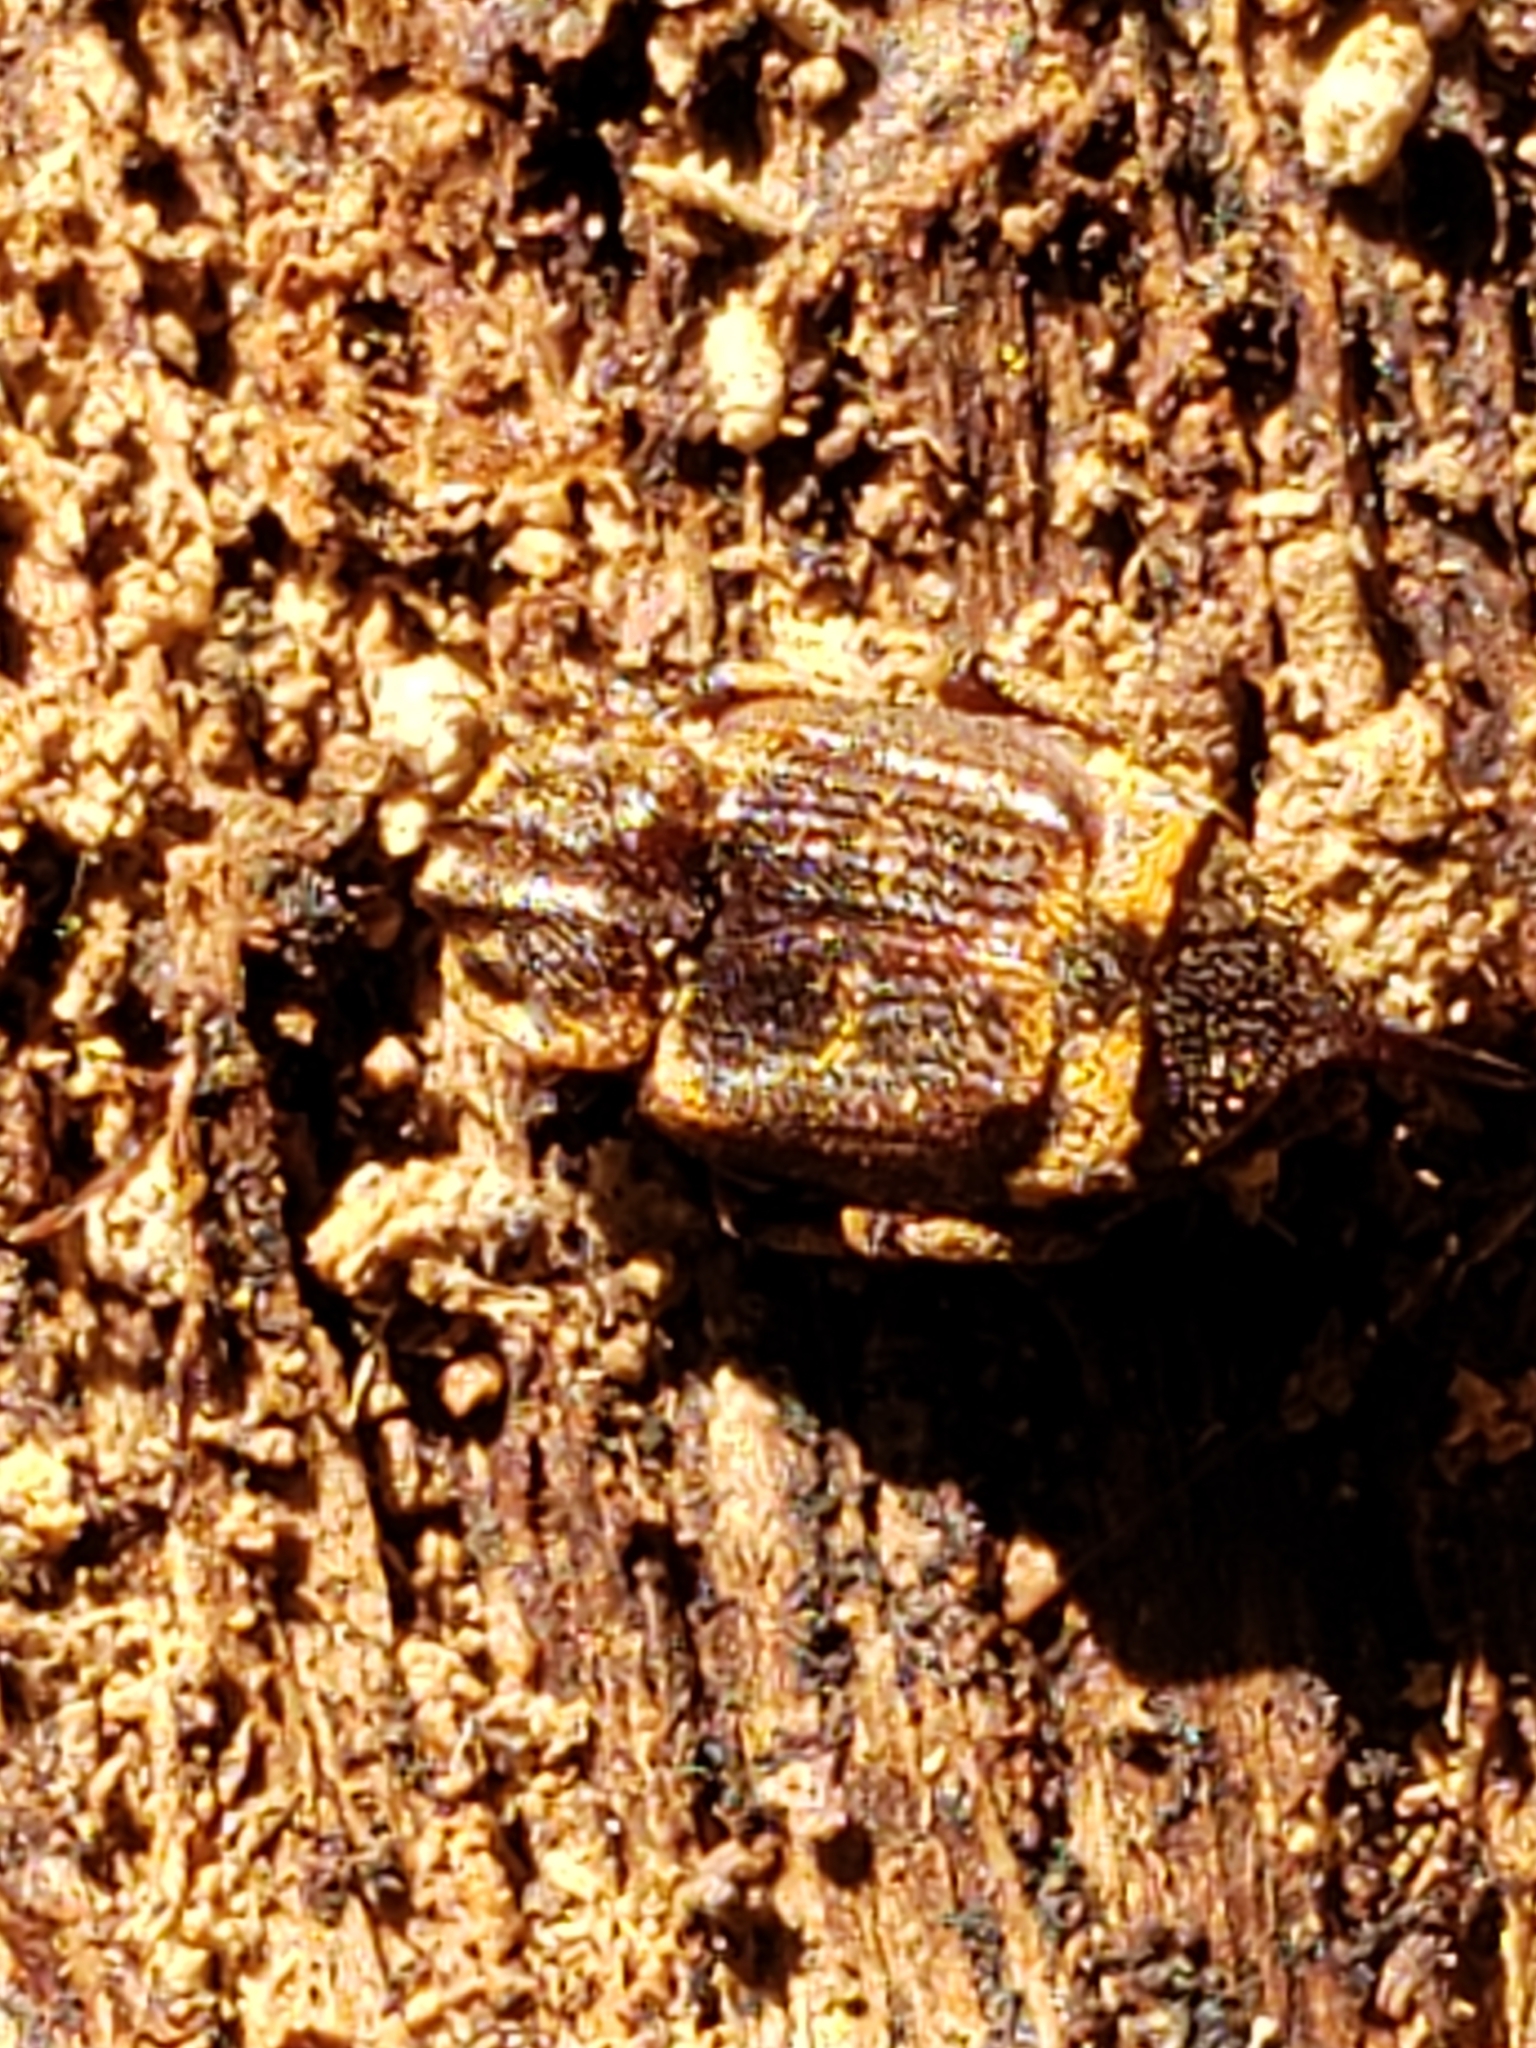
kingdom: Animalia
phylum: Arthropoda
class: Insecta
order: Coleoptera
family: Scarabaeidae
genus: Valgus
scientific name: Valgus
